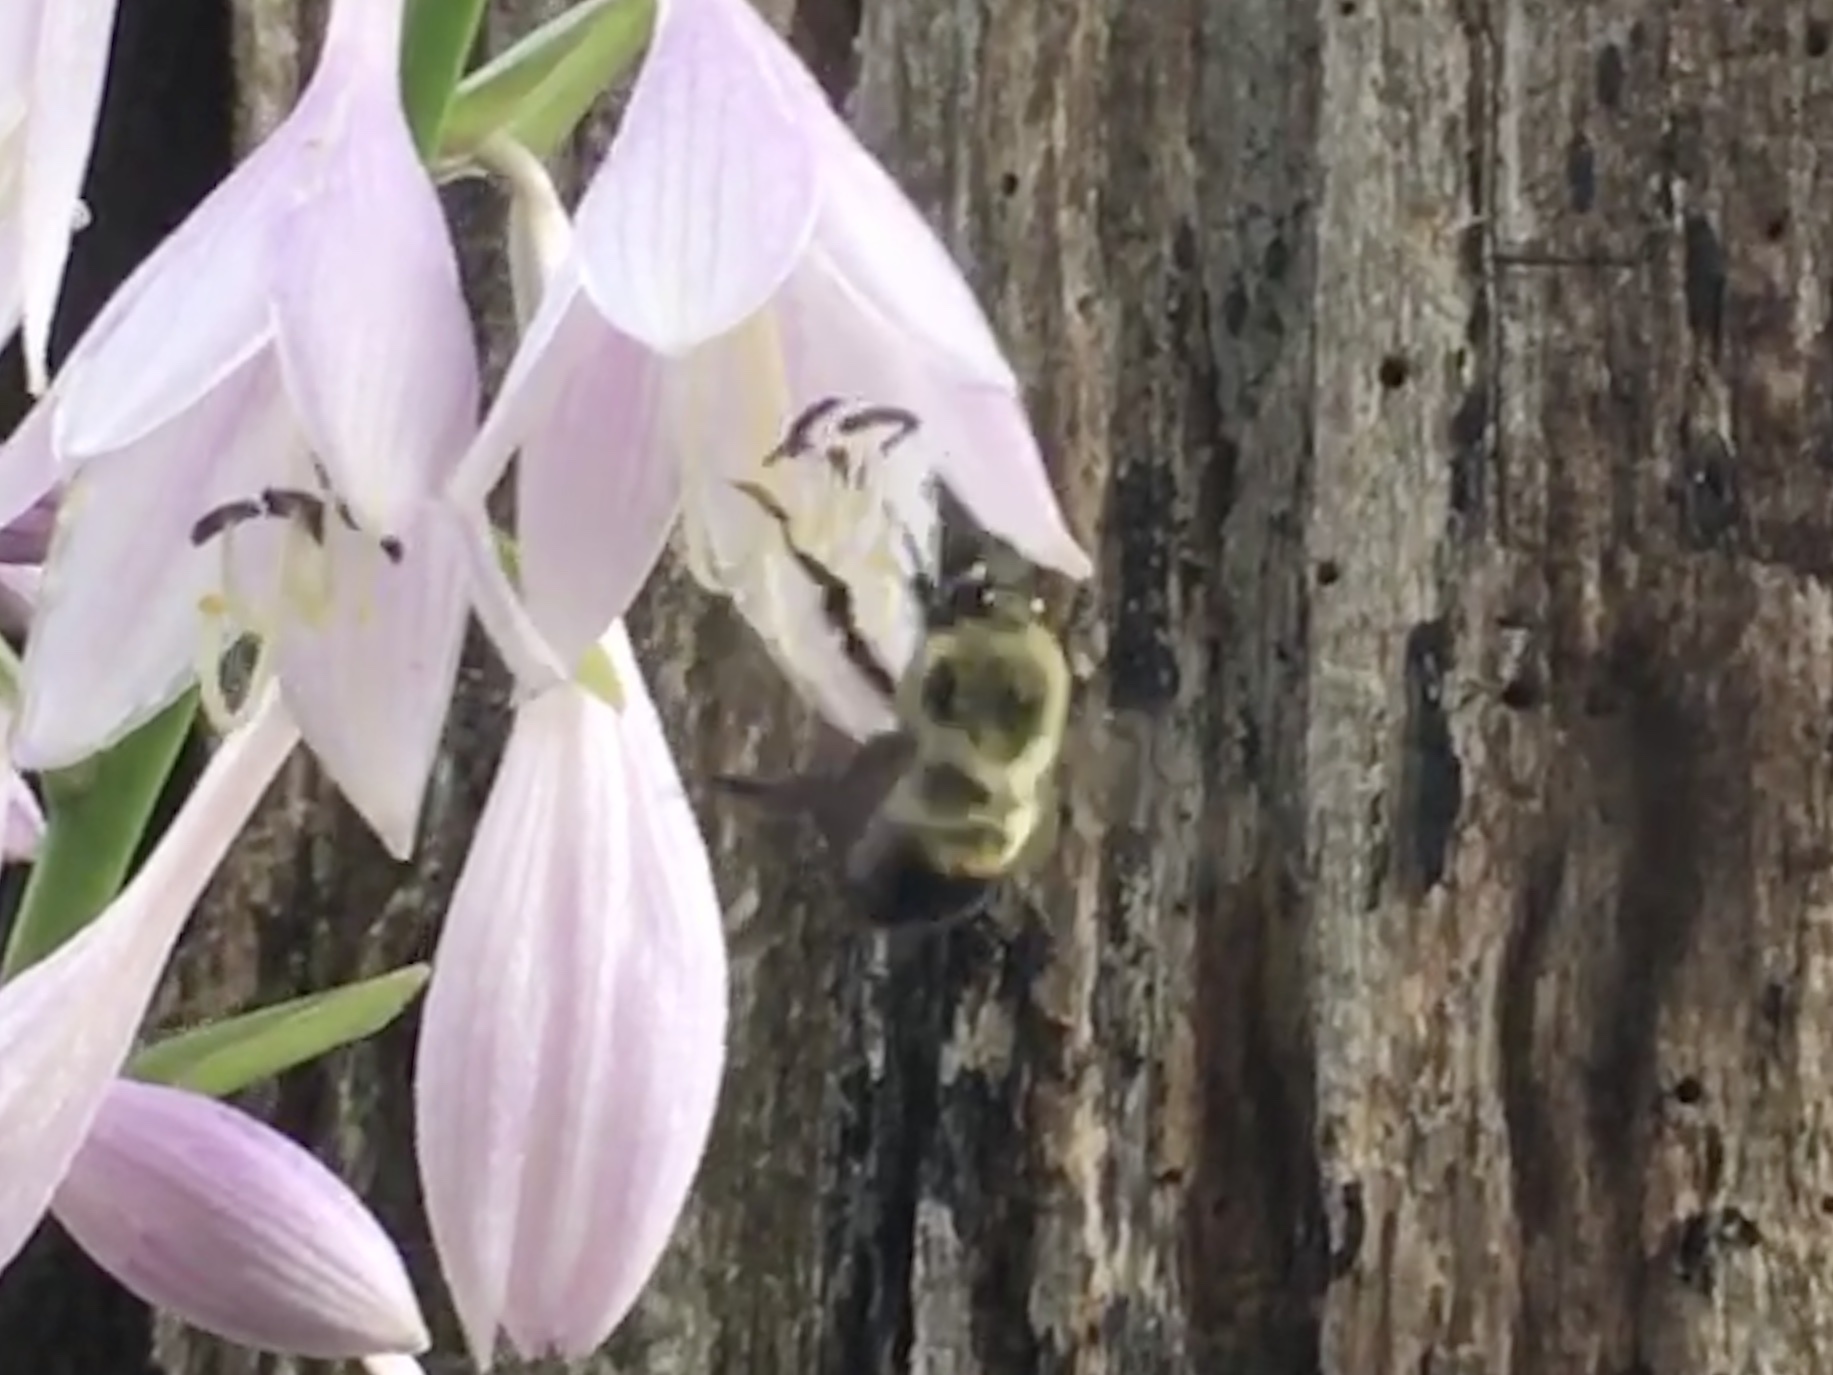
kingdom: Animalia
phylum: Arthropoda
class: Insecta
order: Hymenoptera
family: Apidae
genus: Bombus
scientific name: Bombus griseocollis
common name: Brown-belted bumble bee
